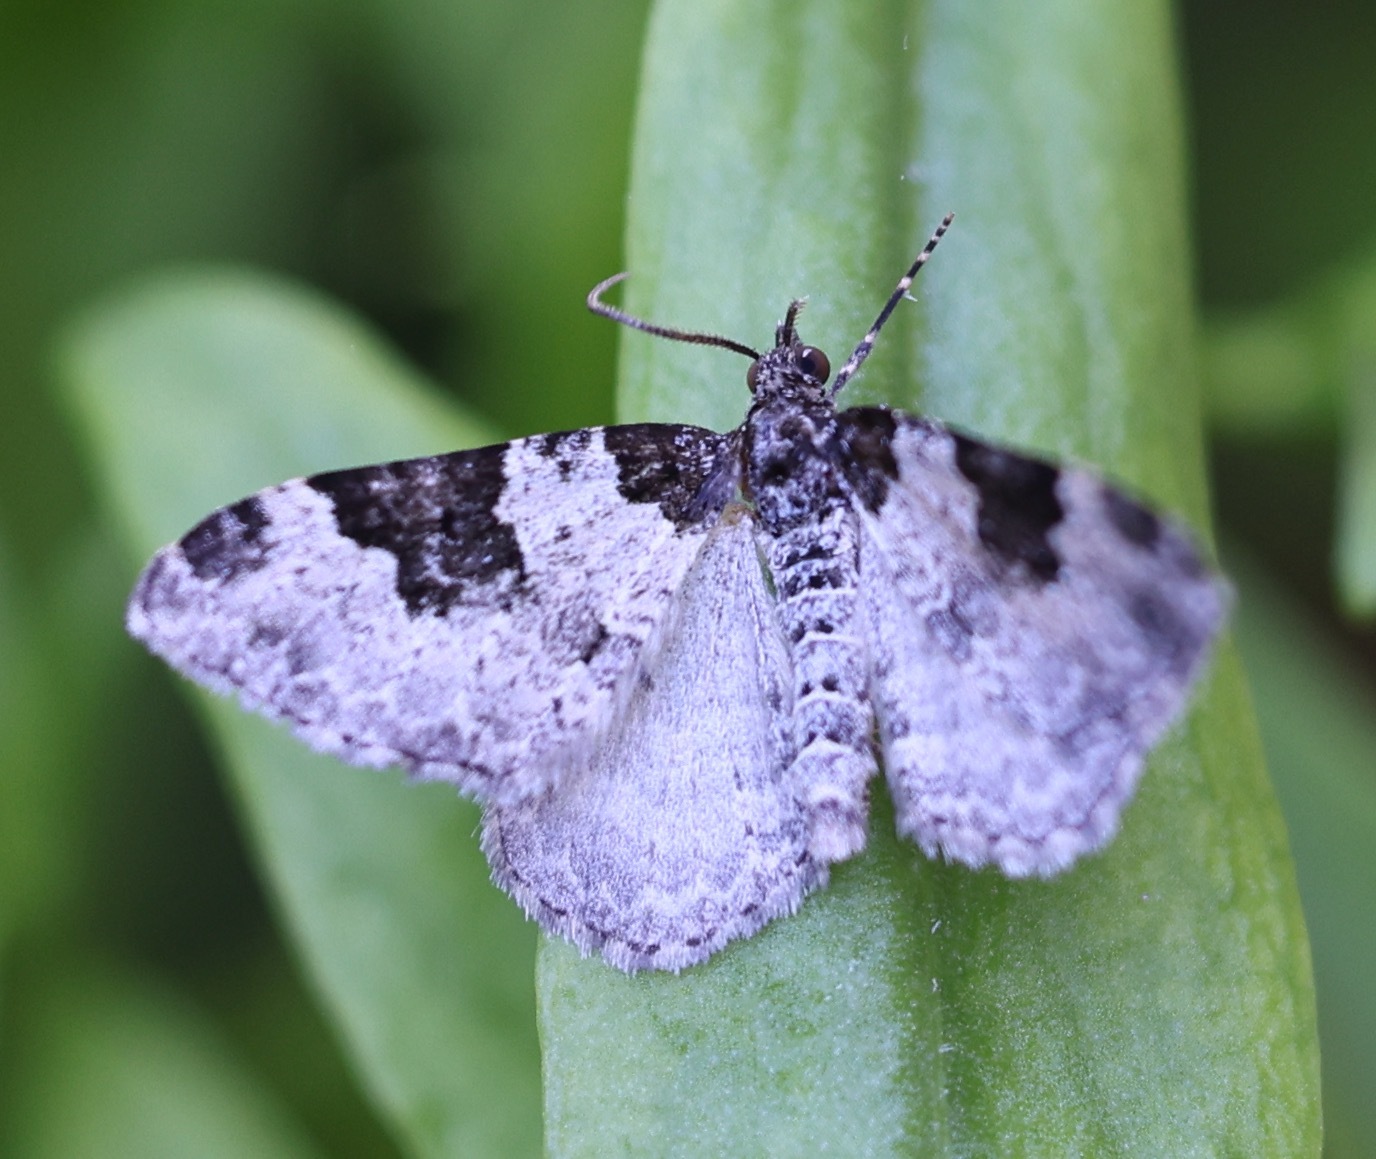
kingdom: Animalia
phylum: Arthropoda
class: Insecta
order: Lepidoptera
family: Geometridae
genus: Xanthorhoe
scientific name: Xanthorhoe fluctuata
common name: Garden carpet
